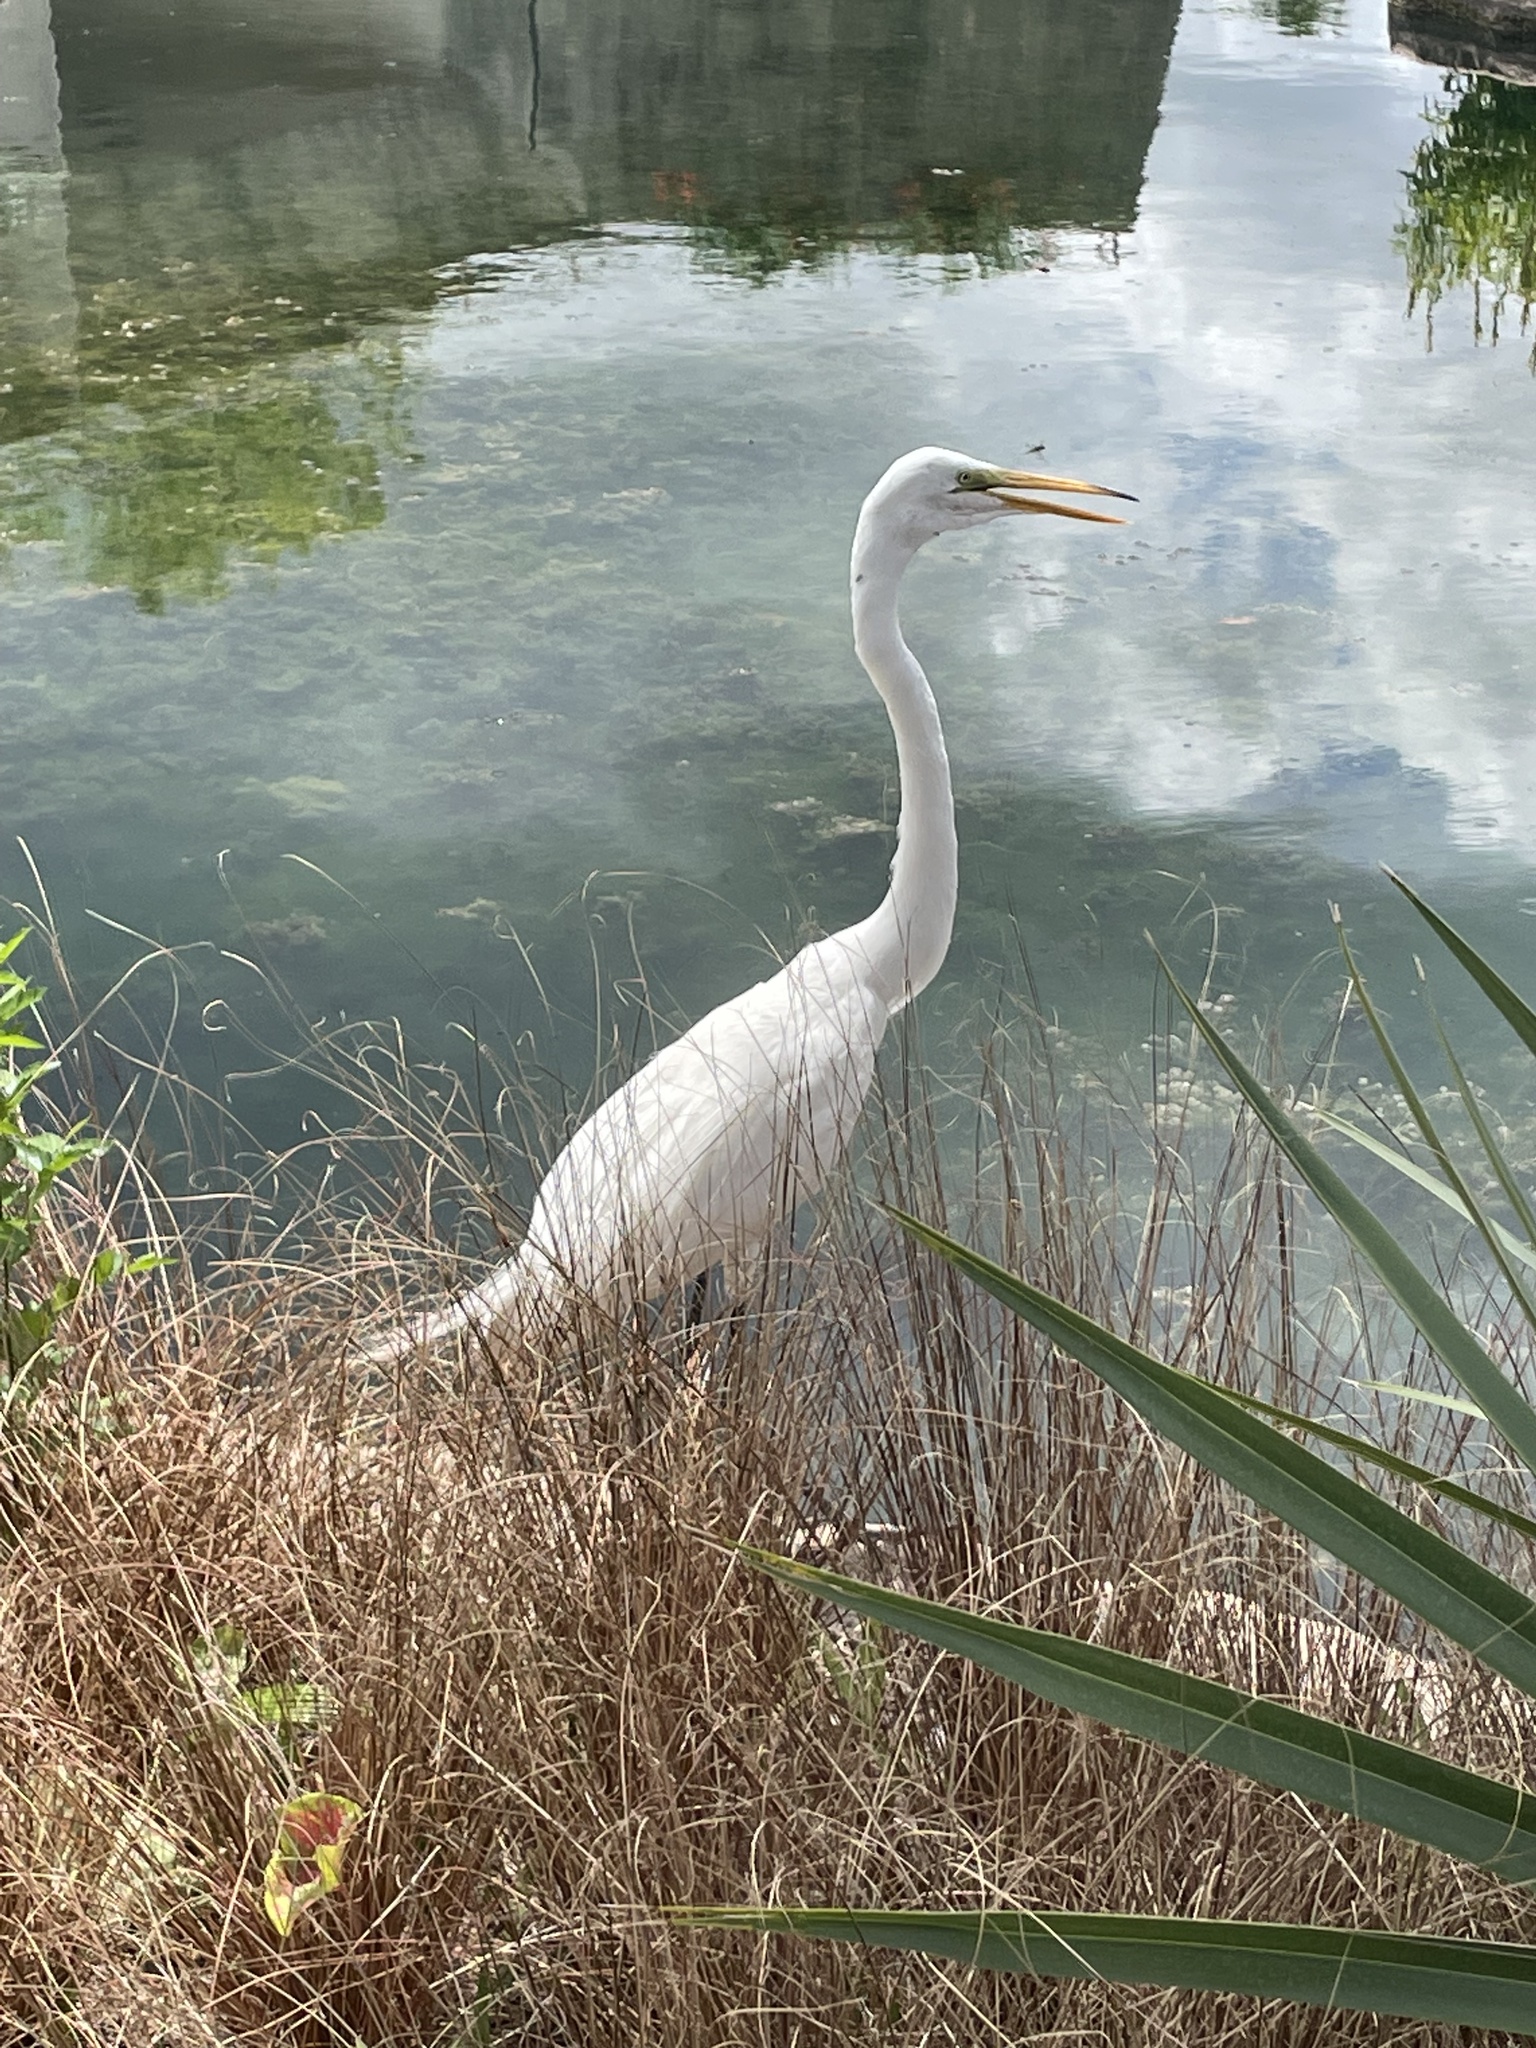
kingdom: Animalia
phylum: Chordata
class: Aves
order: Pelecaniformes
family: Ardeidae
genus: Ardea
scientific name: Ardea alba
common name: Great egret
